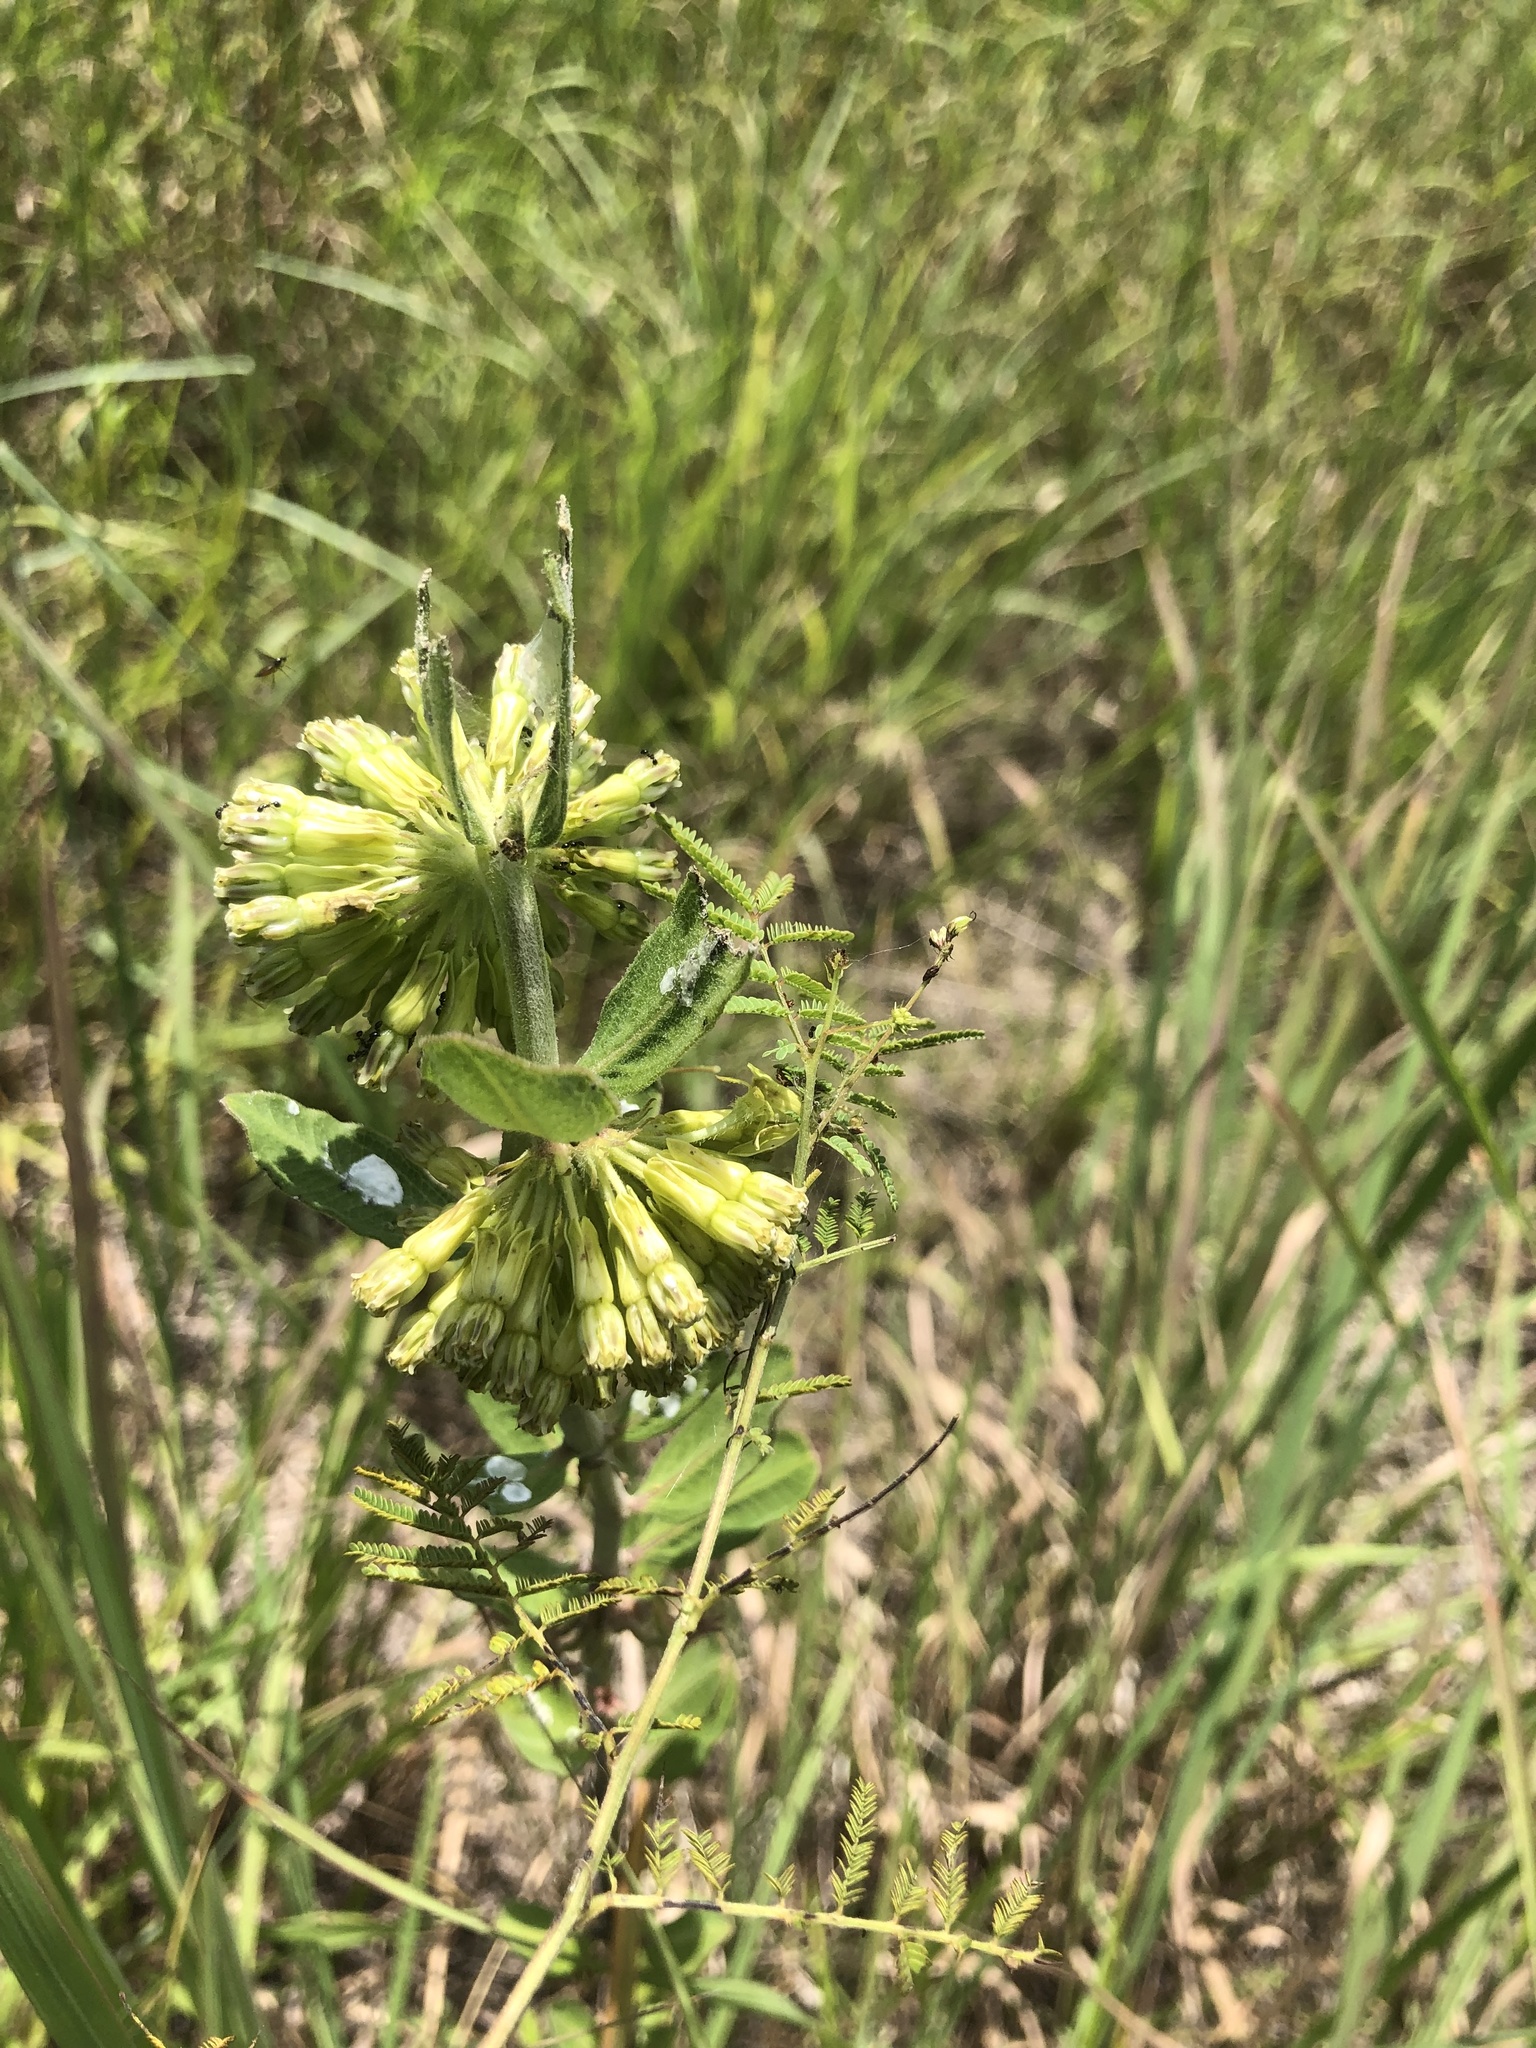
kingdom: Plantae
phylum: Tracheophyta
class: Magnoliopsida
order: Gentianales
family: Apocynaceae
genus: Asclepias
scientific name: Asclepias viridiflora
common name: Green comet milkweed
